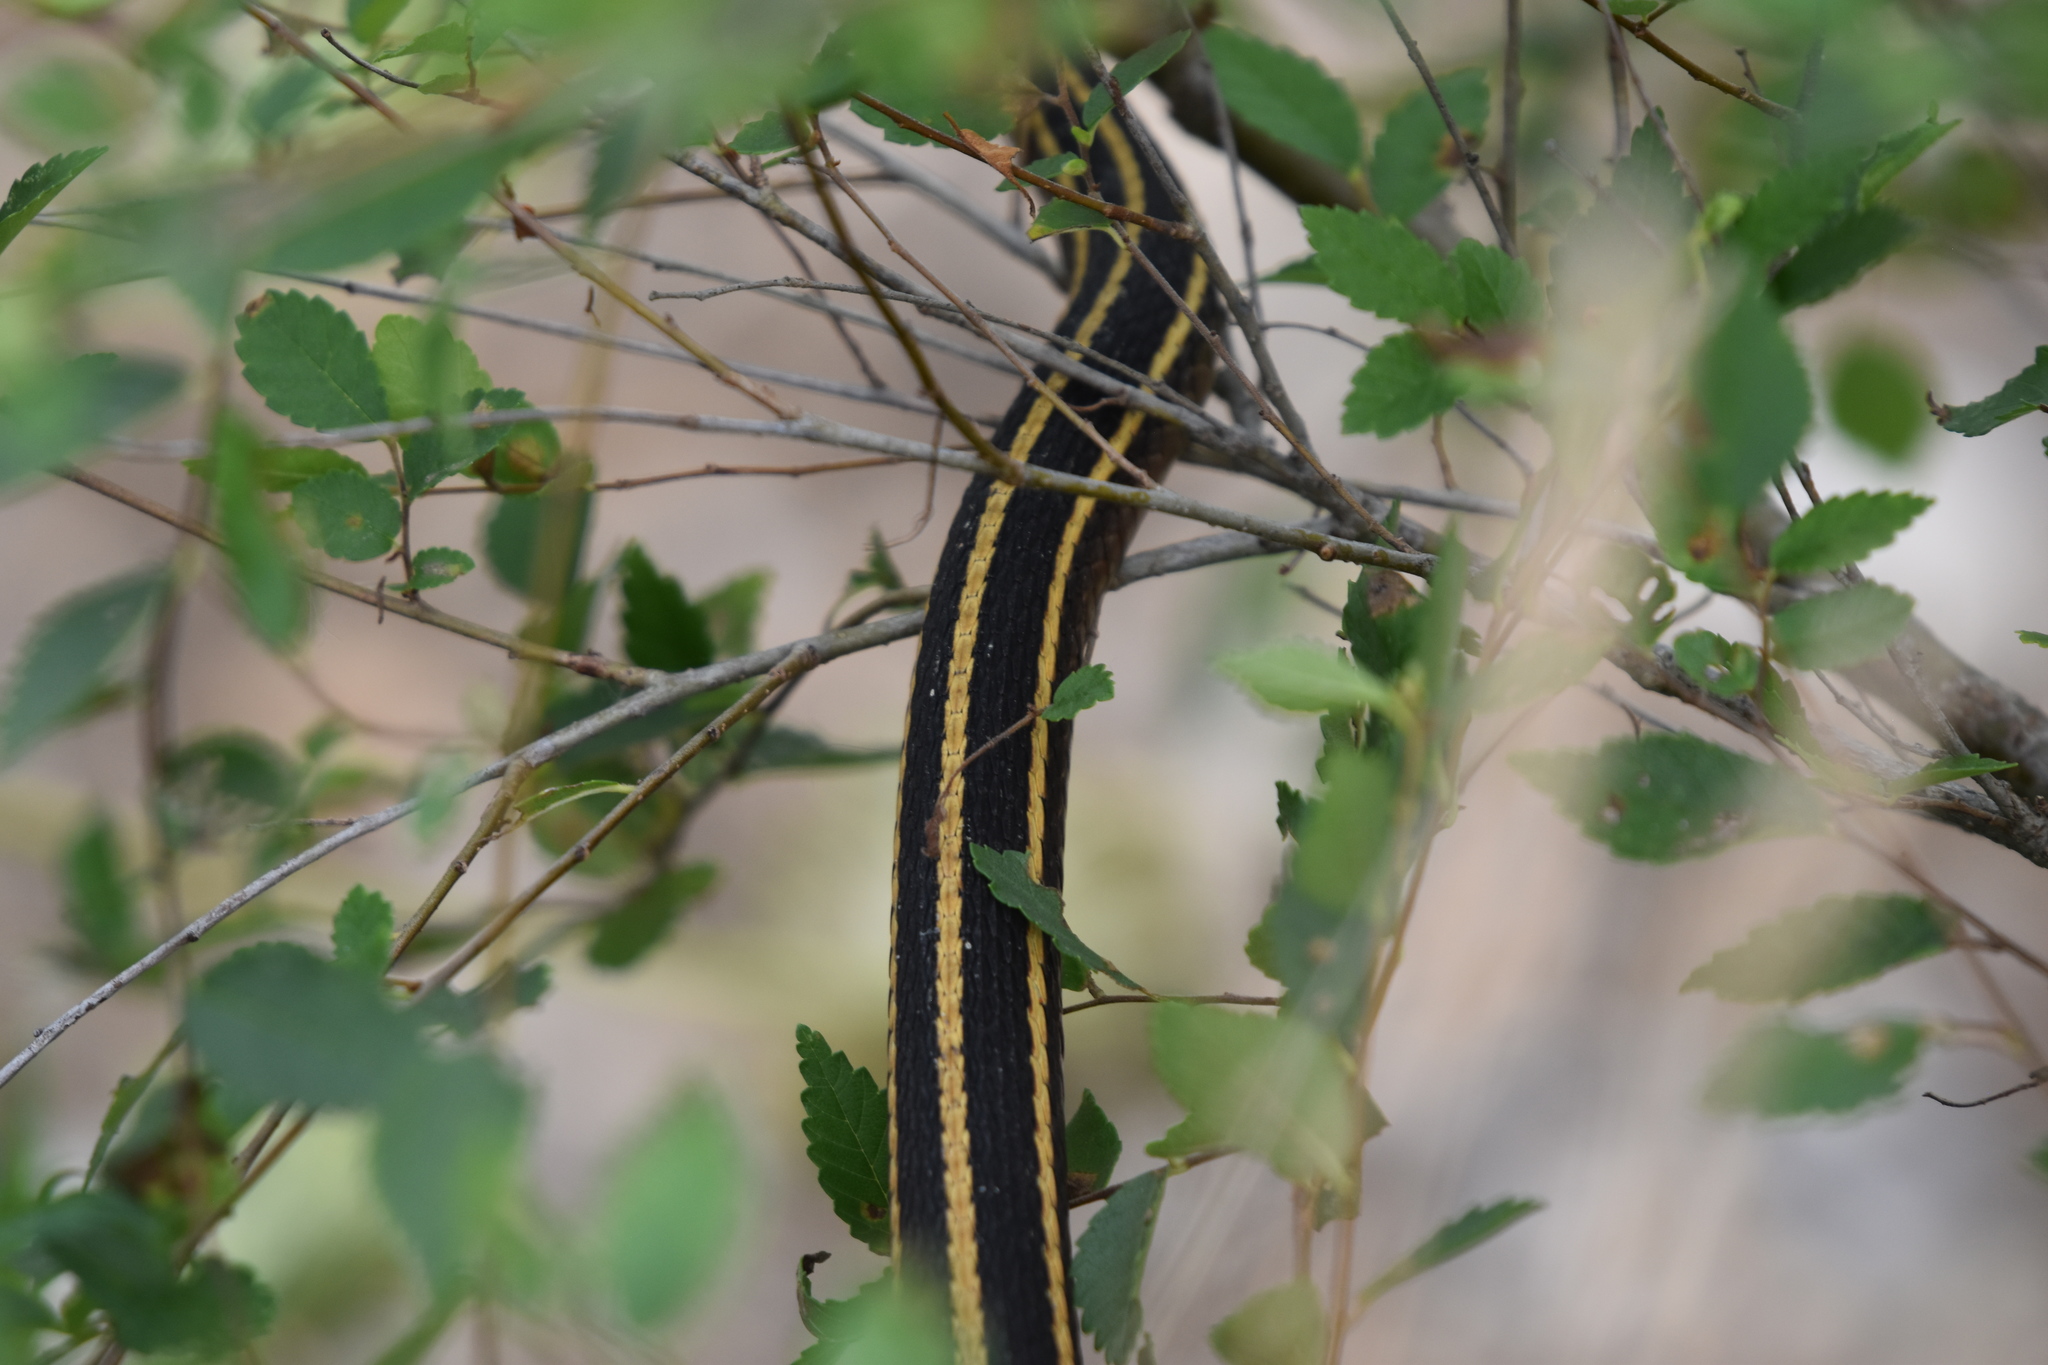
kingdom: Animalia
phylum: Chordata
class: Squamata
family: Colubridae
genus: Thamnophis
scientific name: Thamnophis saurita
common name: Eastern ribbonsnake
